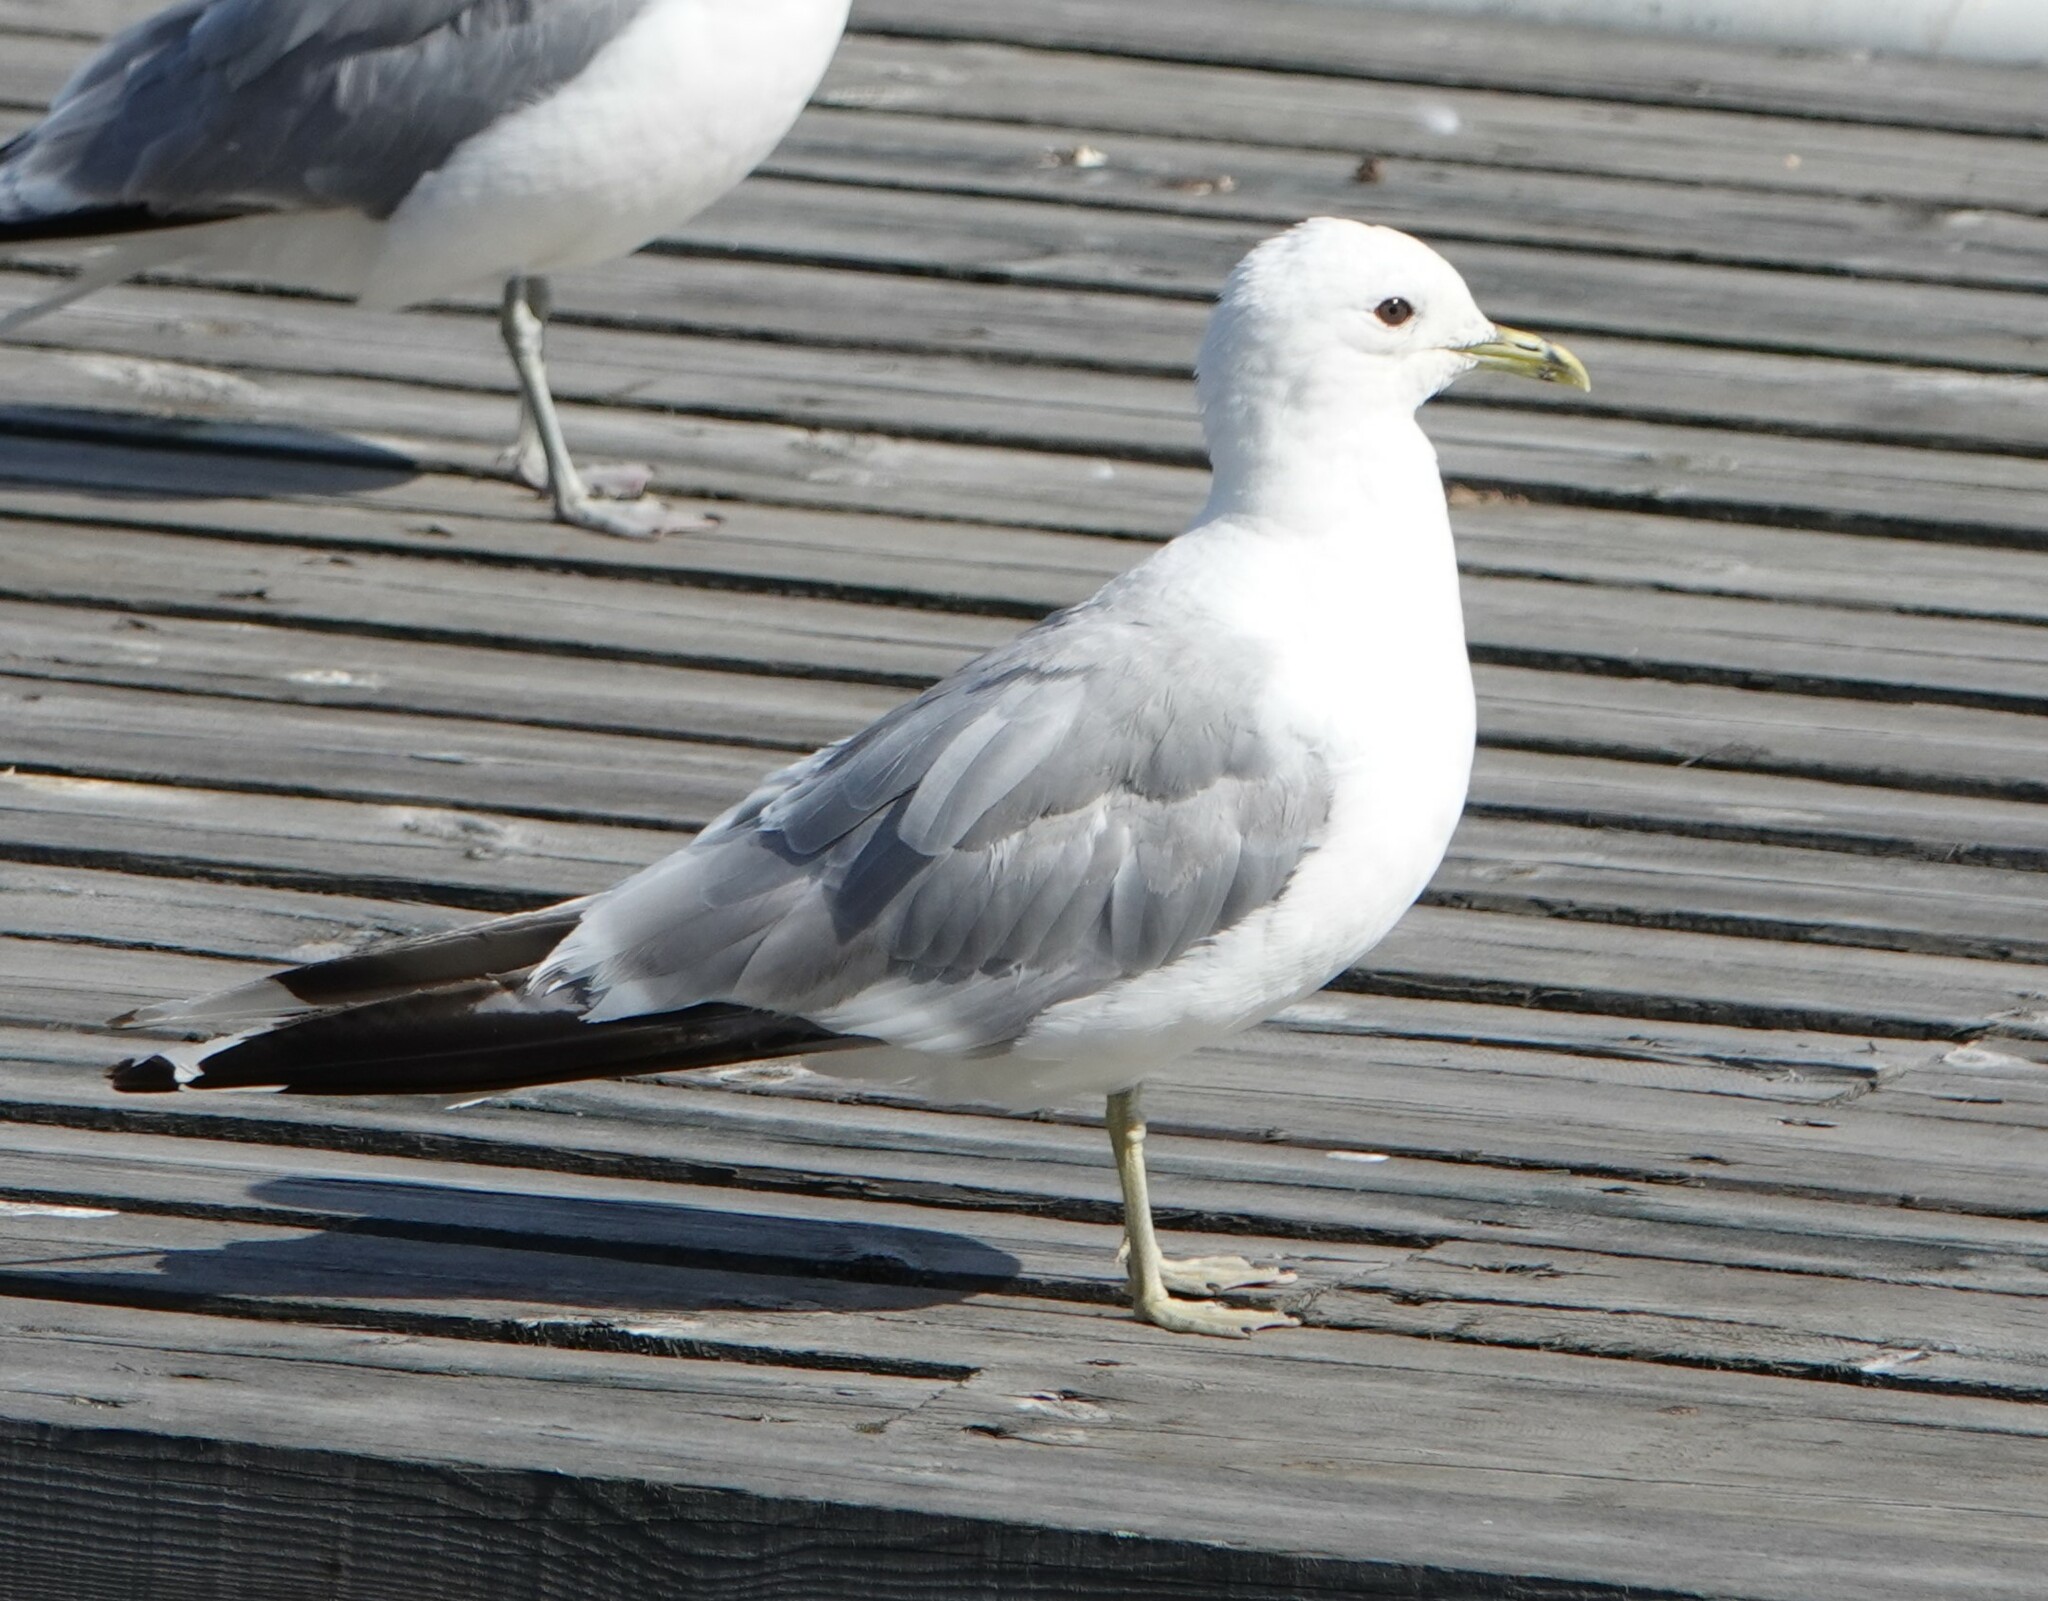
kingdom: Animalia
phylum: Chordata
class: Aves
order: Charadriiformes
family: Laridae
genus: Larus
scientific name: Larus canus
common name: Mew gull
